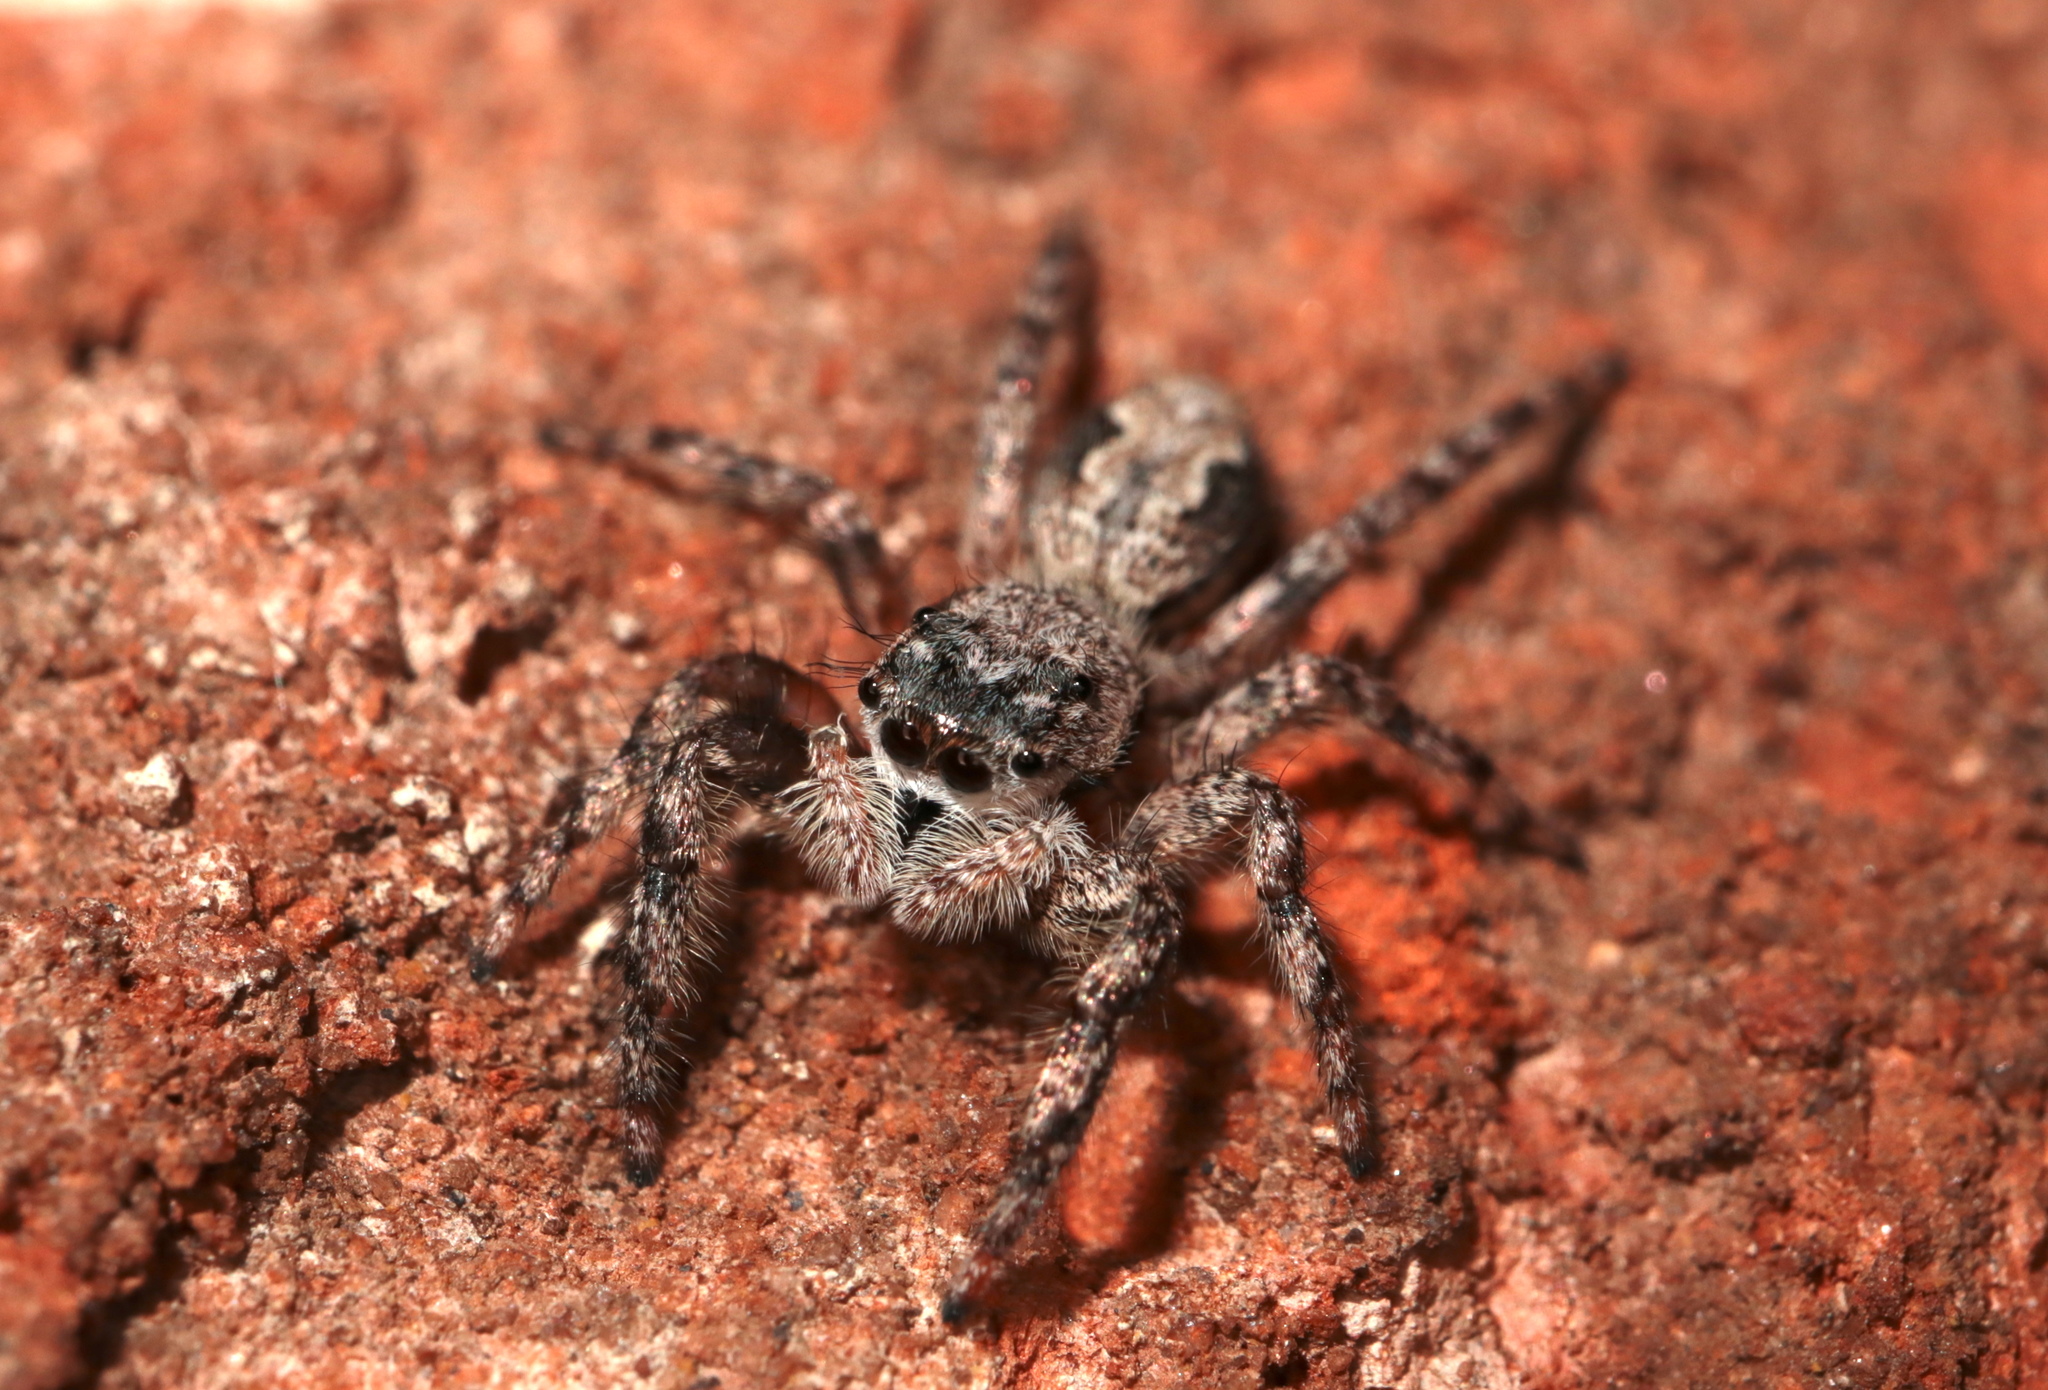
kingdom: Animalia
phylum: Arthropoda
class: Arachnida
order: Araneae
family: Salticidae
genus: Platycryptus
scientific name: Platycryptus undatus
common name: Tan jumping spider
